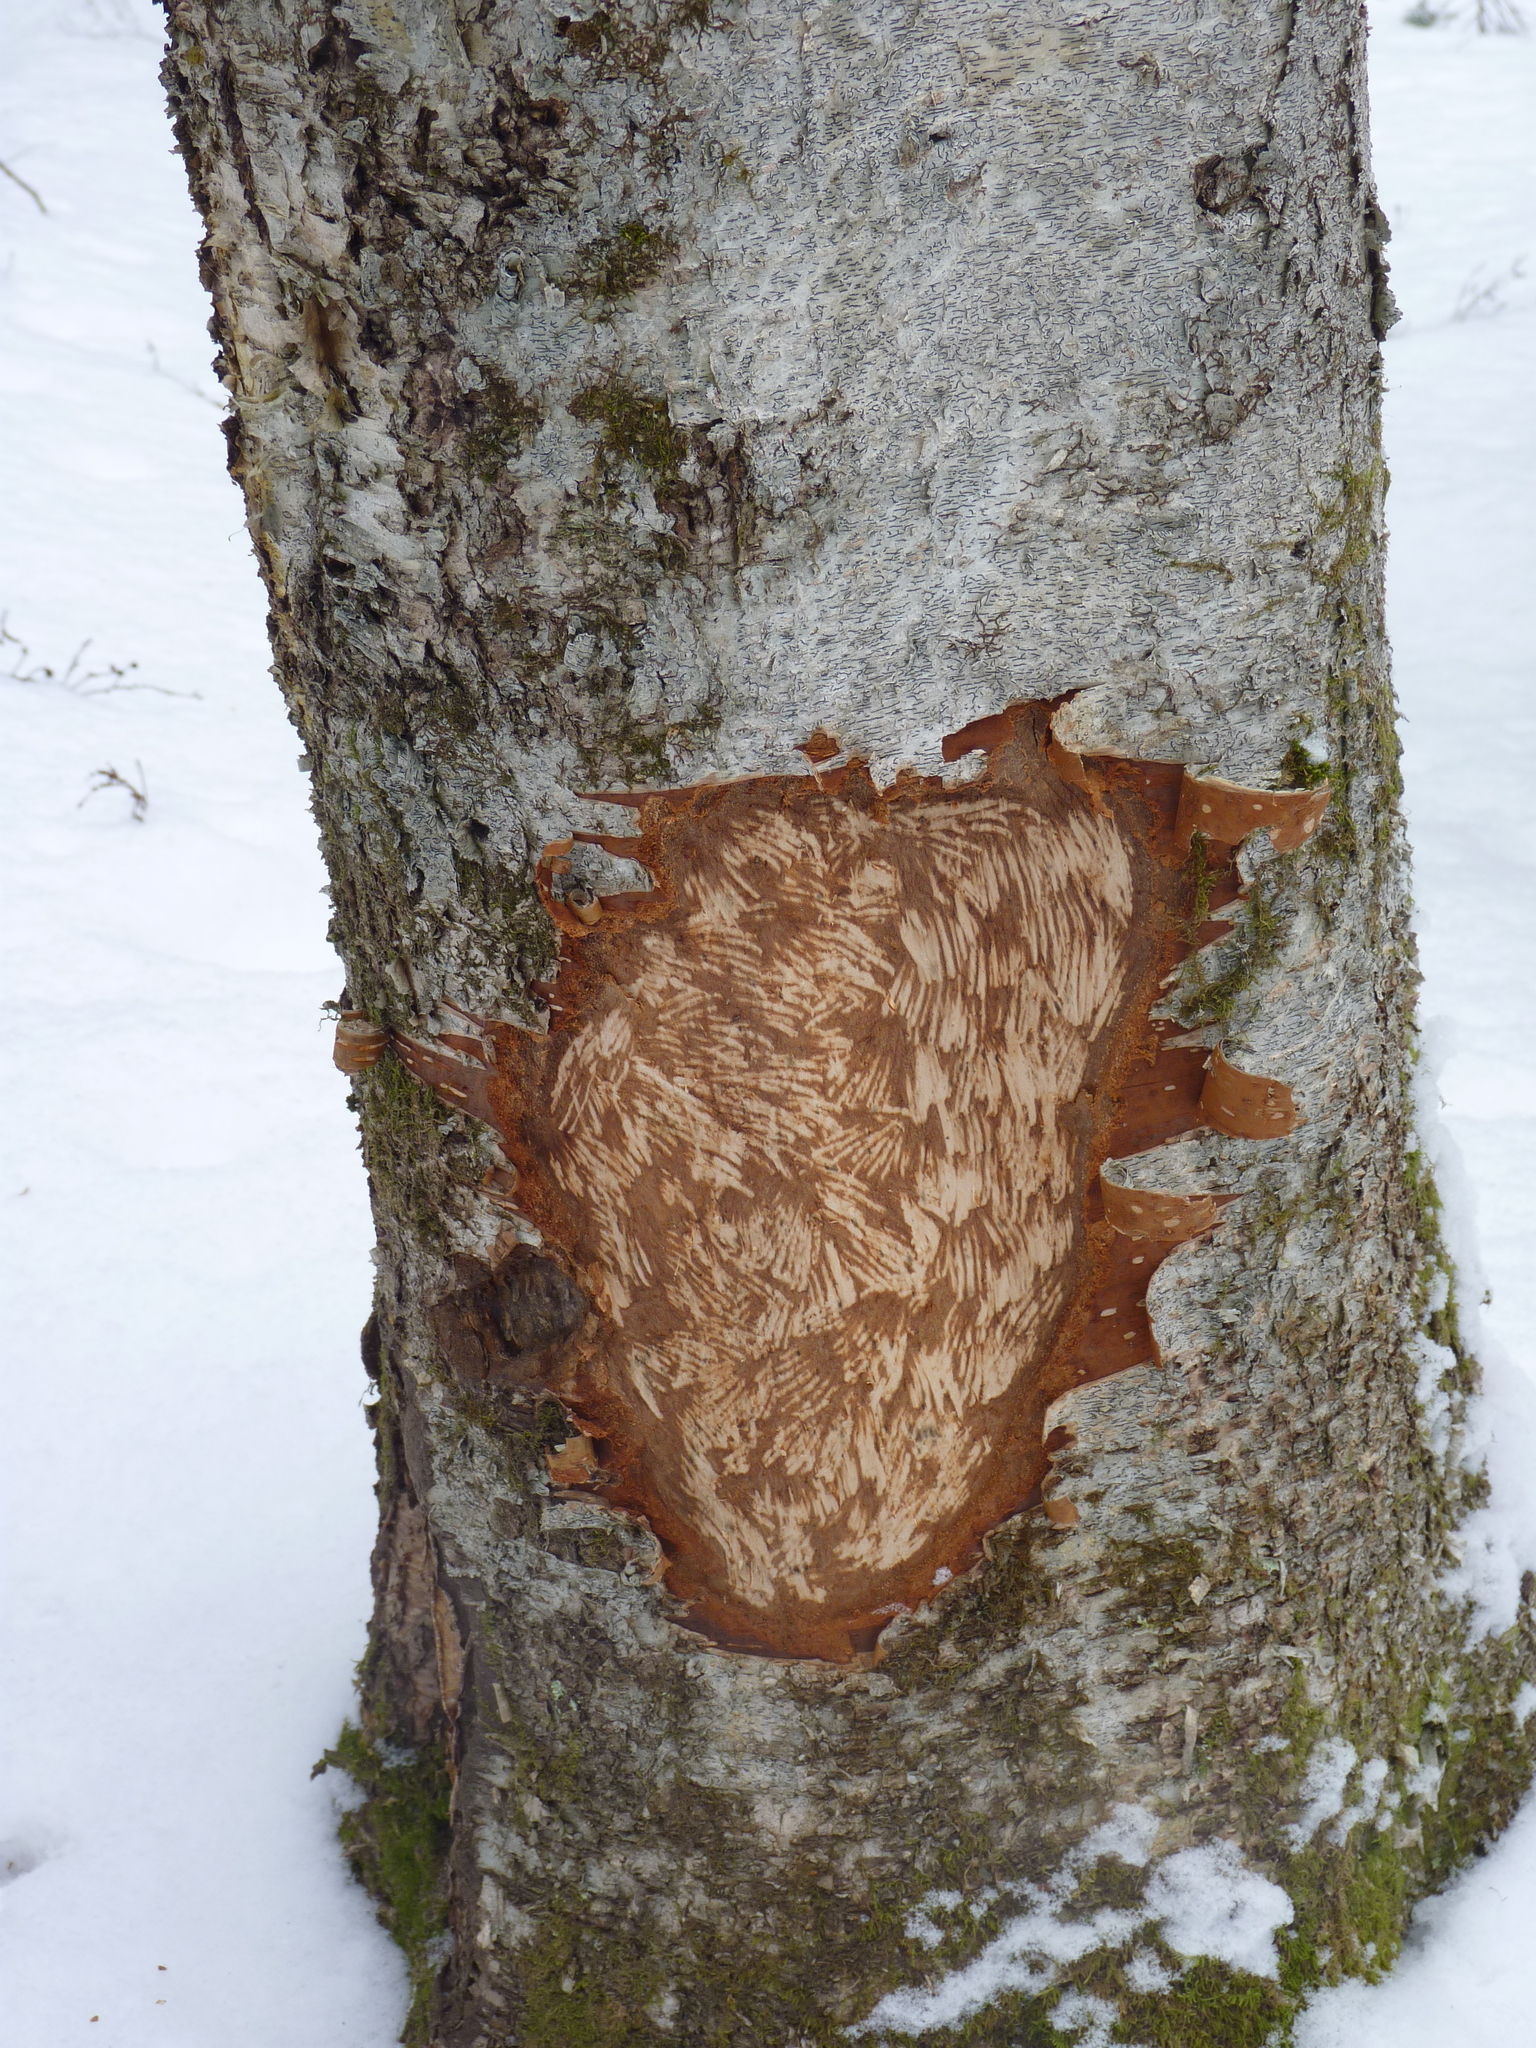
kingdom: Animalia
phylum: Chordata
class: Mammalia
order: Rodentia
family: Erethizontidae
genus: Erethizon
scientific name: Erethizon dorsatus
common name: North american porcupine
